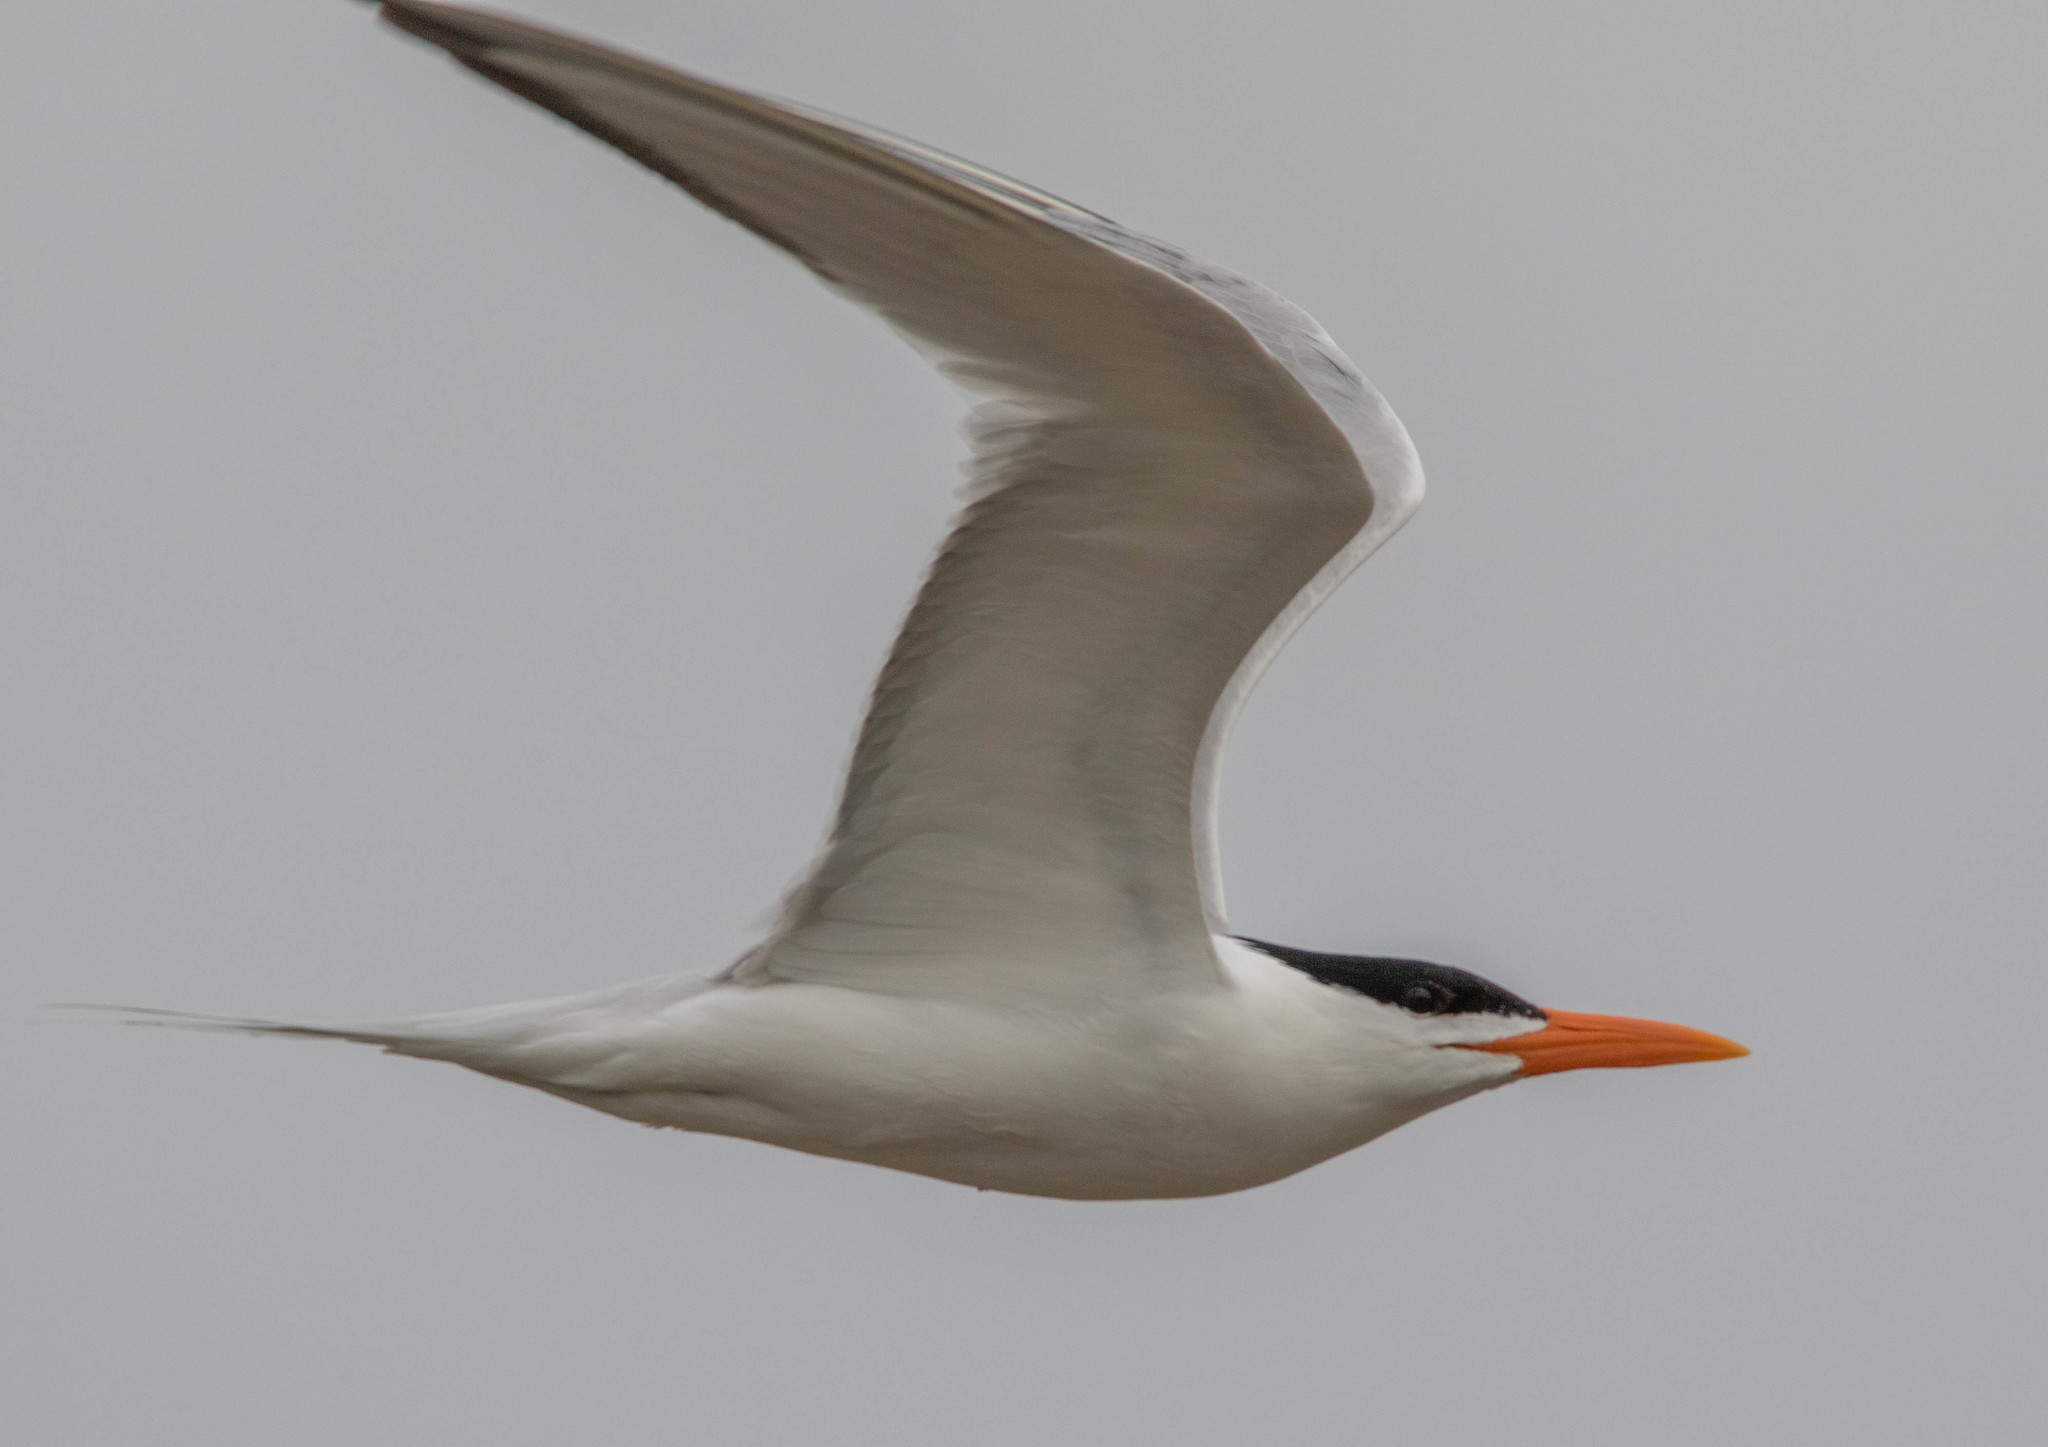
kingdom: Animalia
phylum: Chordata
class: Aves
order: Charadriiformes
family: Laridae
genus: Thalasseus
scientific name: Thalasseus maximus
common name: Royal tern
